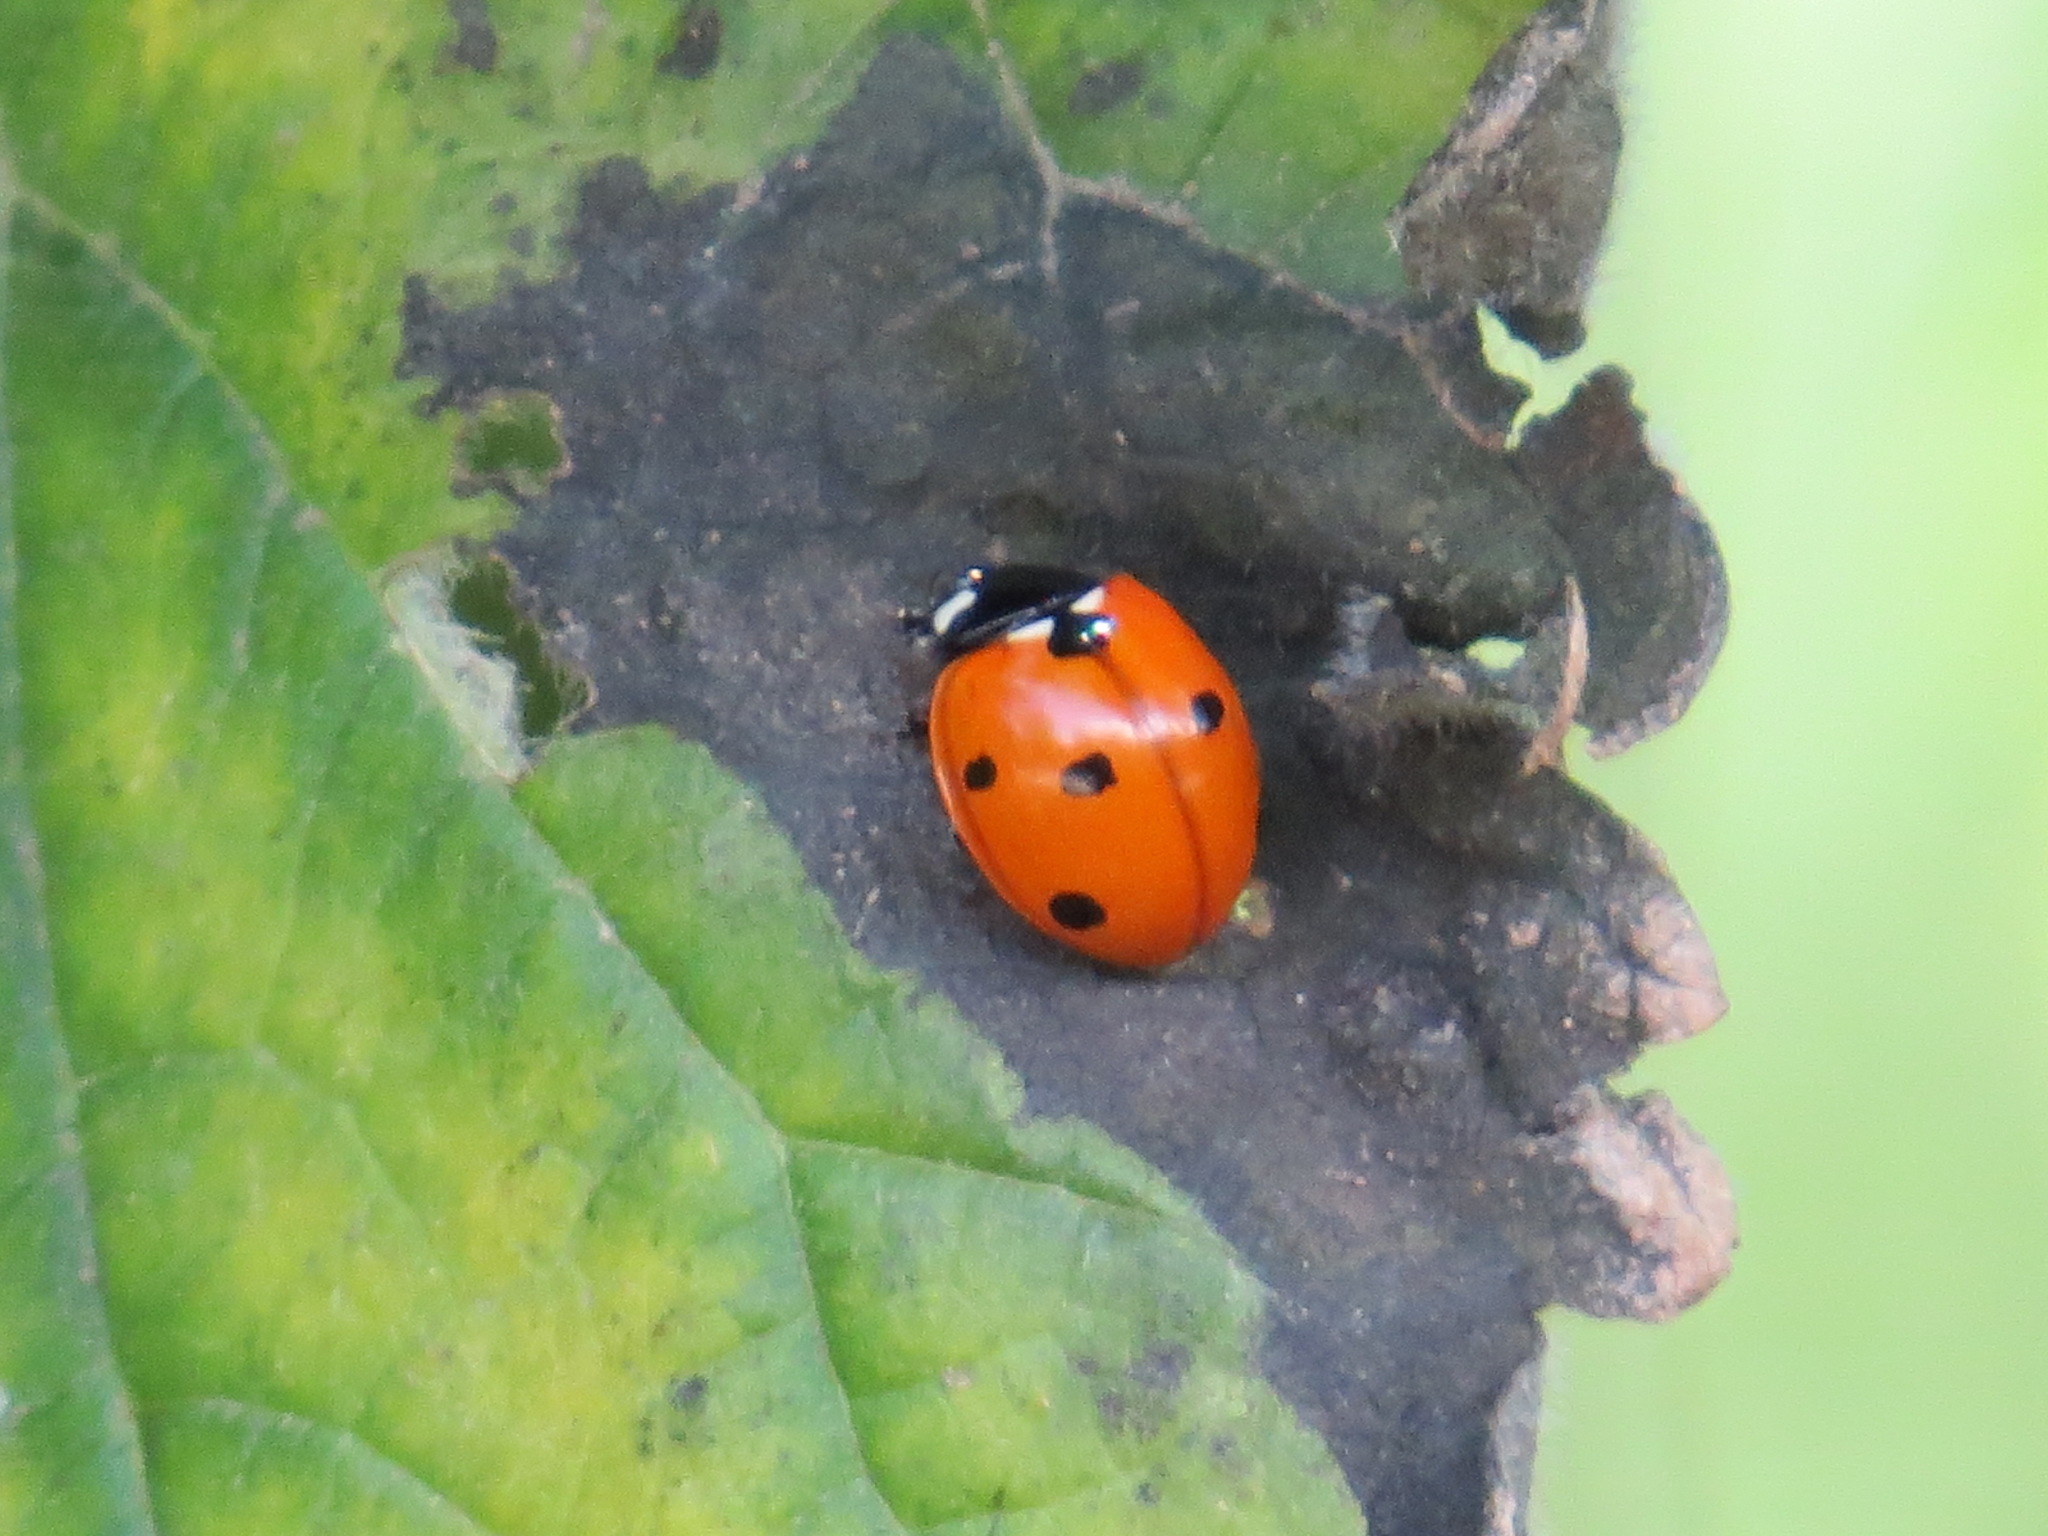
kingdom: Animalia
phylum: Arthropoda
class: Insecta
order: Coleoptera
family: Coccinellidae
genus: Coccinella
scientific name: Coccinella septempunctata
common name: Sevenspotted lady beetle
